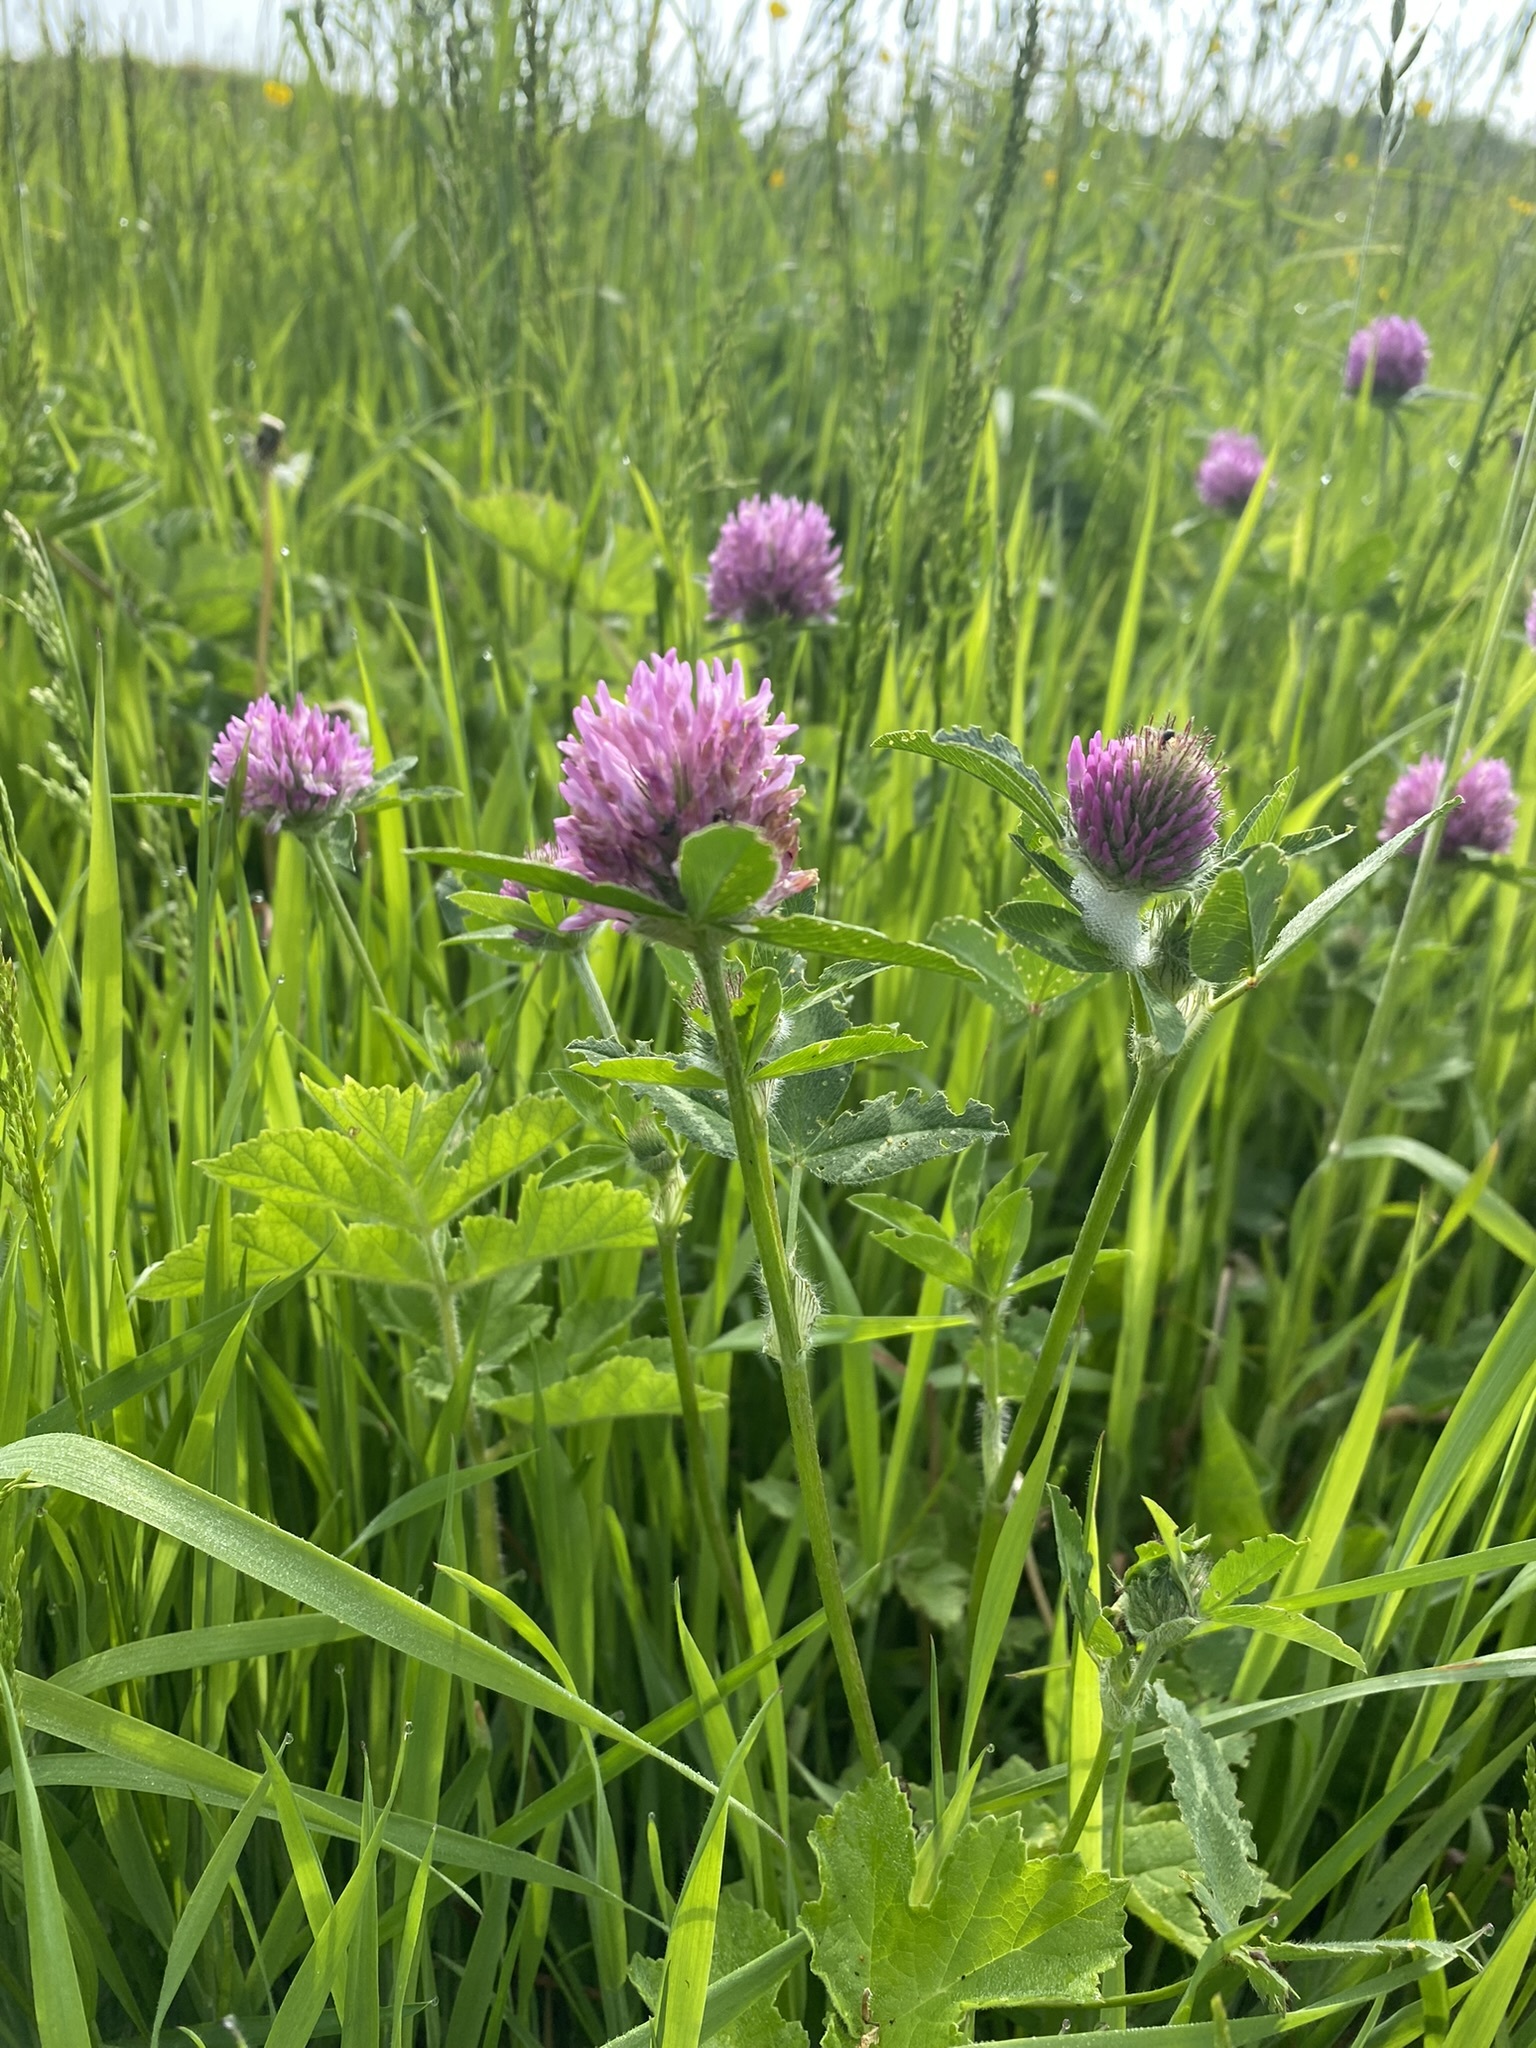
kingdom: Plantae
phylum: Tracheophyta
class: Magnoliopsida
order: Fabales
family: Fabaceae
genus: Trifolium
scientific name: Trifolium pratense
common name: Red clover
